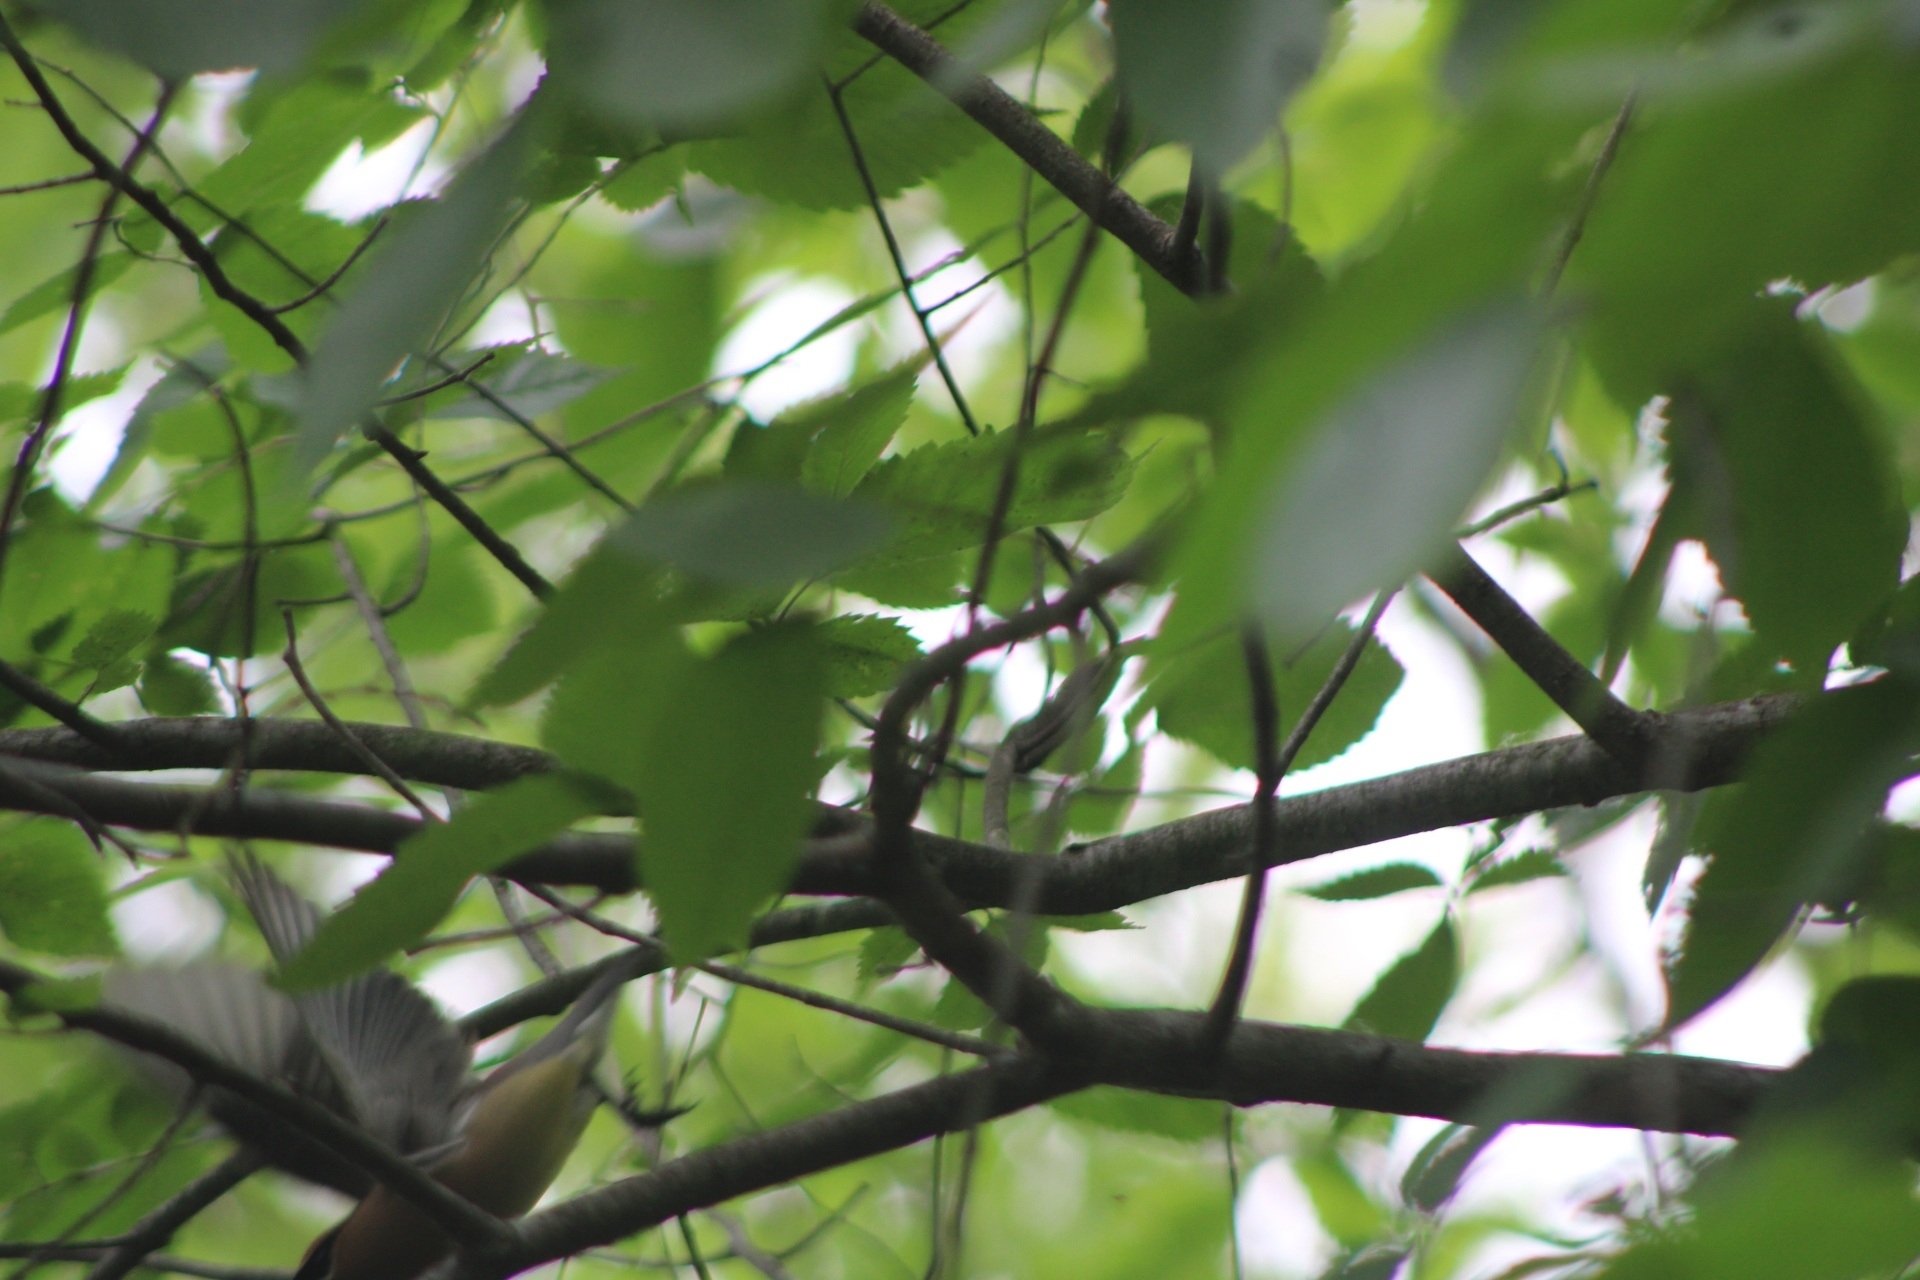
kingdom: Animalia
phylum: Chordata
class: Aves
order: Passeriformes
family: Bombycillidae
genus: Bombycilla
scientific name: Bombycilla cedrorum
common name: Cedar waxwing
